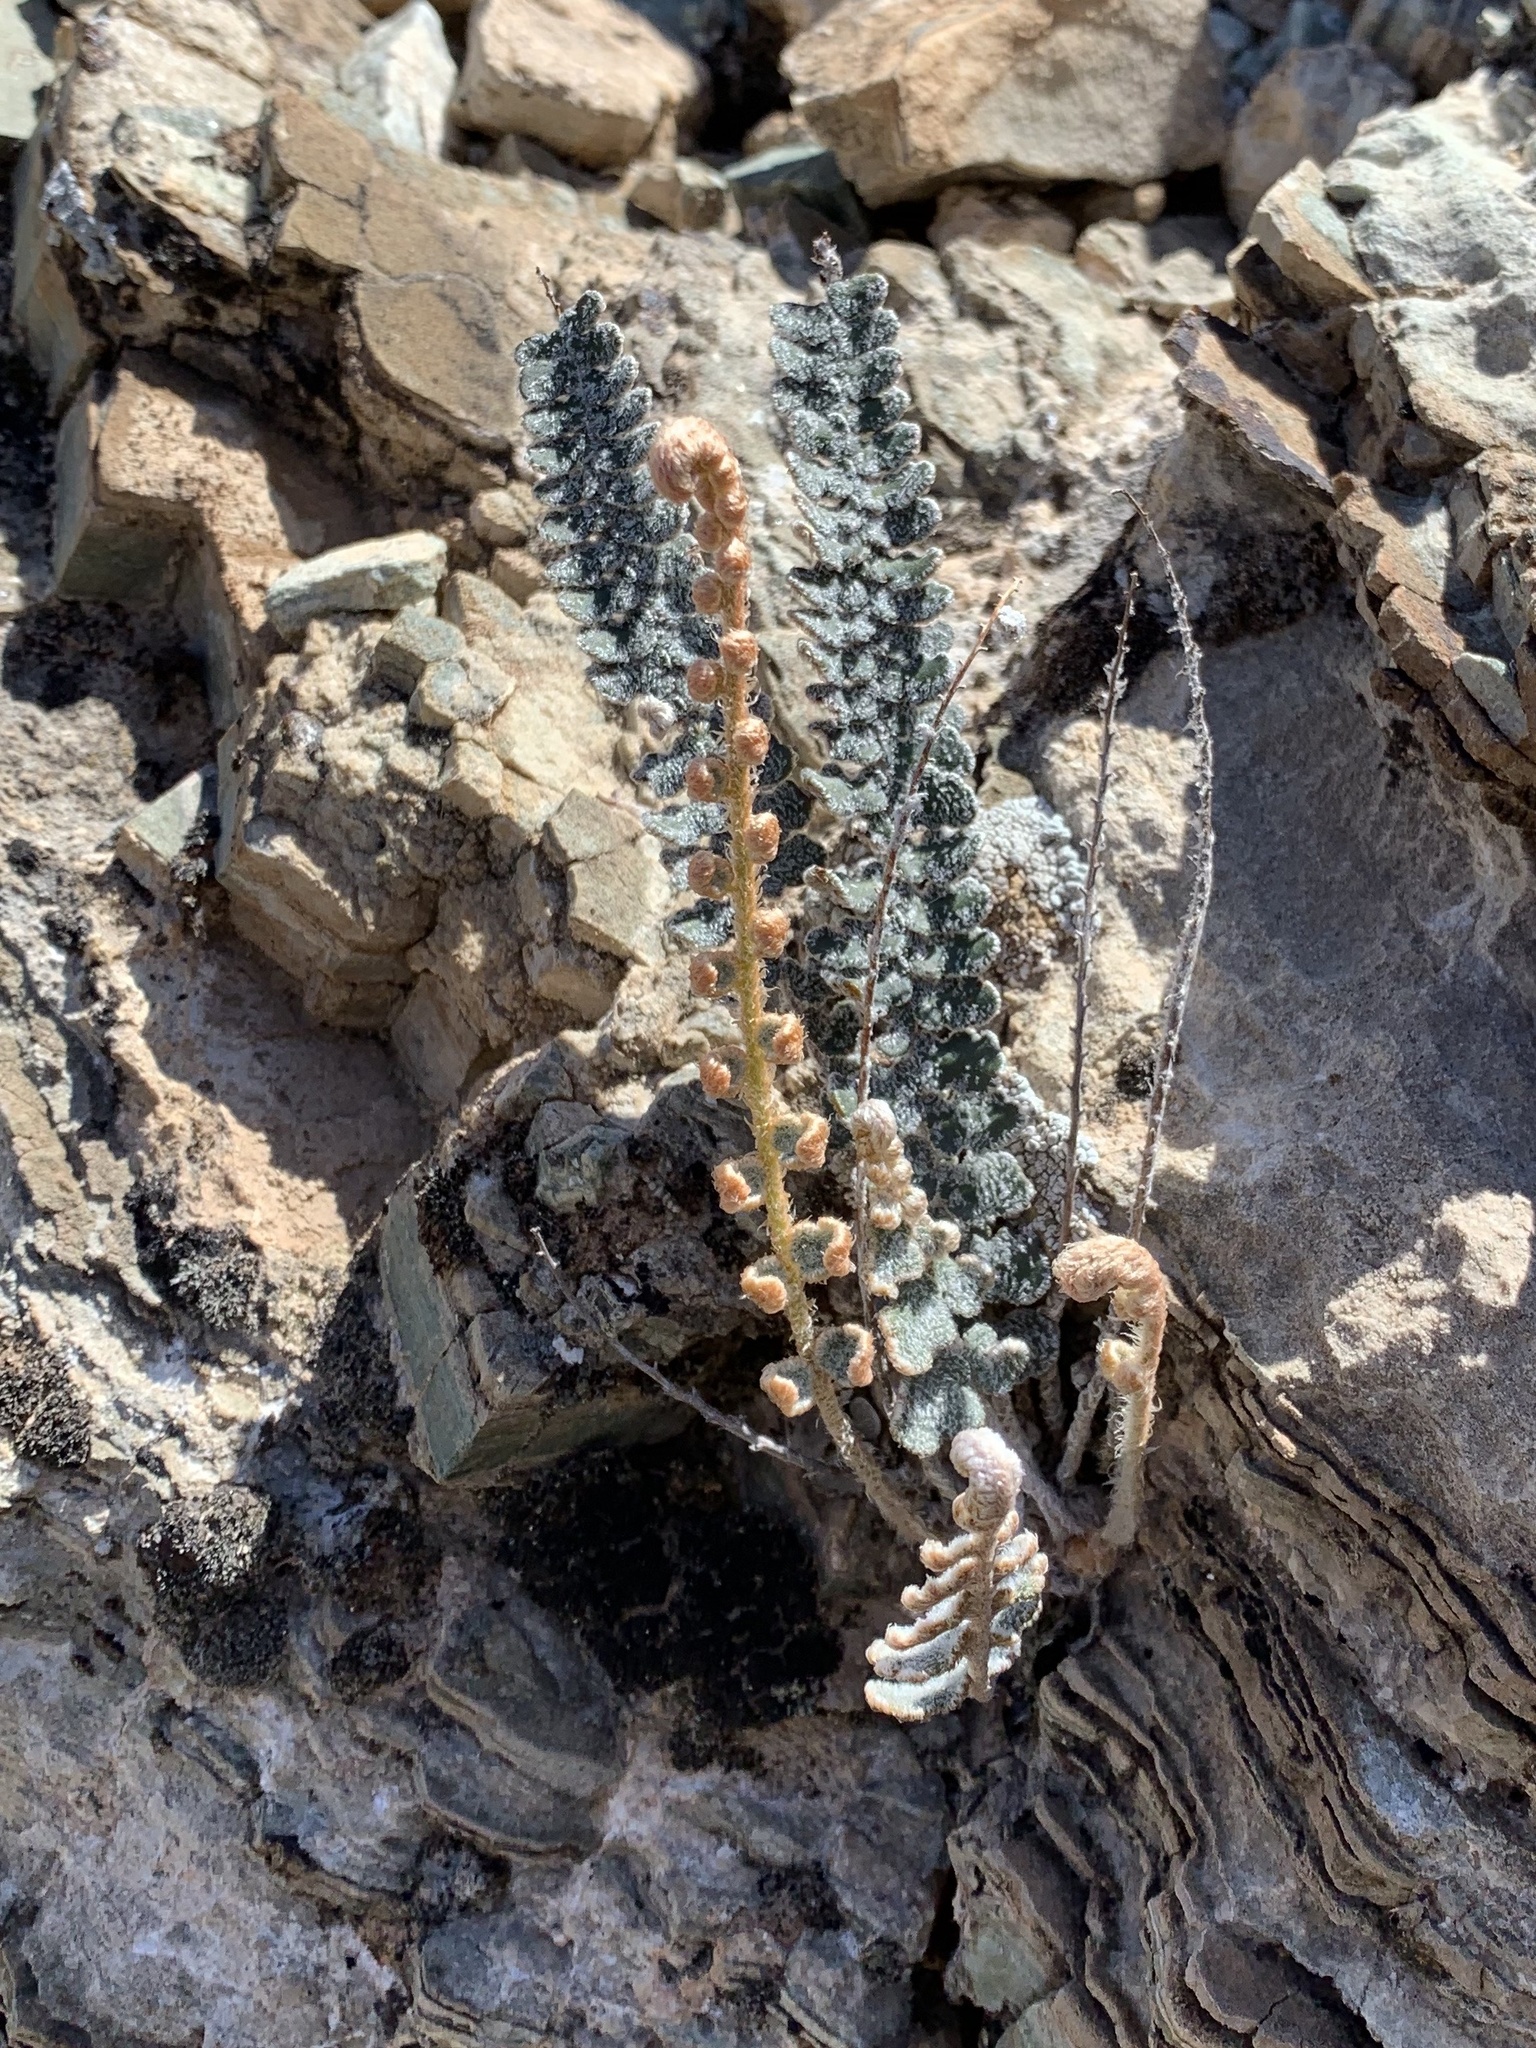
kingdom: Plantae
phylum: Tracheophyta
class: Polypodiopsida
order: Polypodiales
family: Pteridaceae
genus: Astrolepis
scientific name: Astrolepis integerrima
